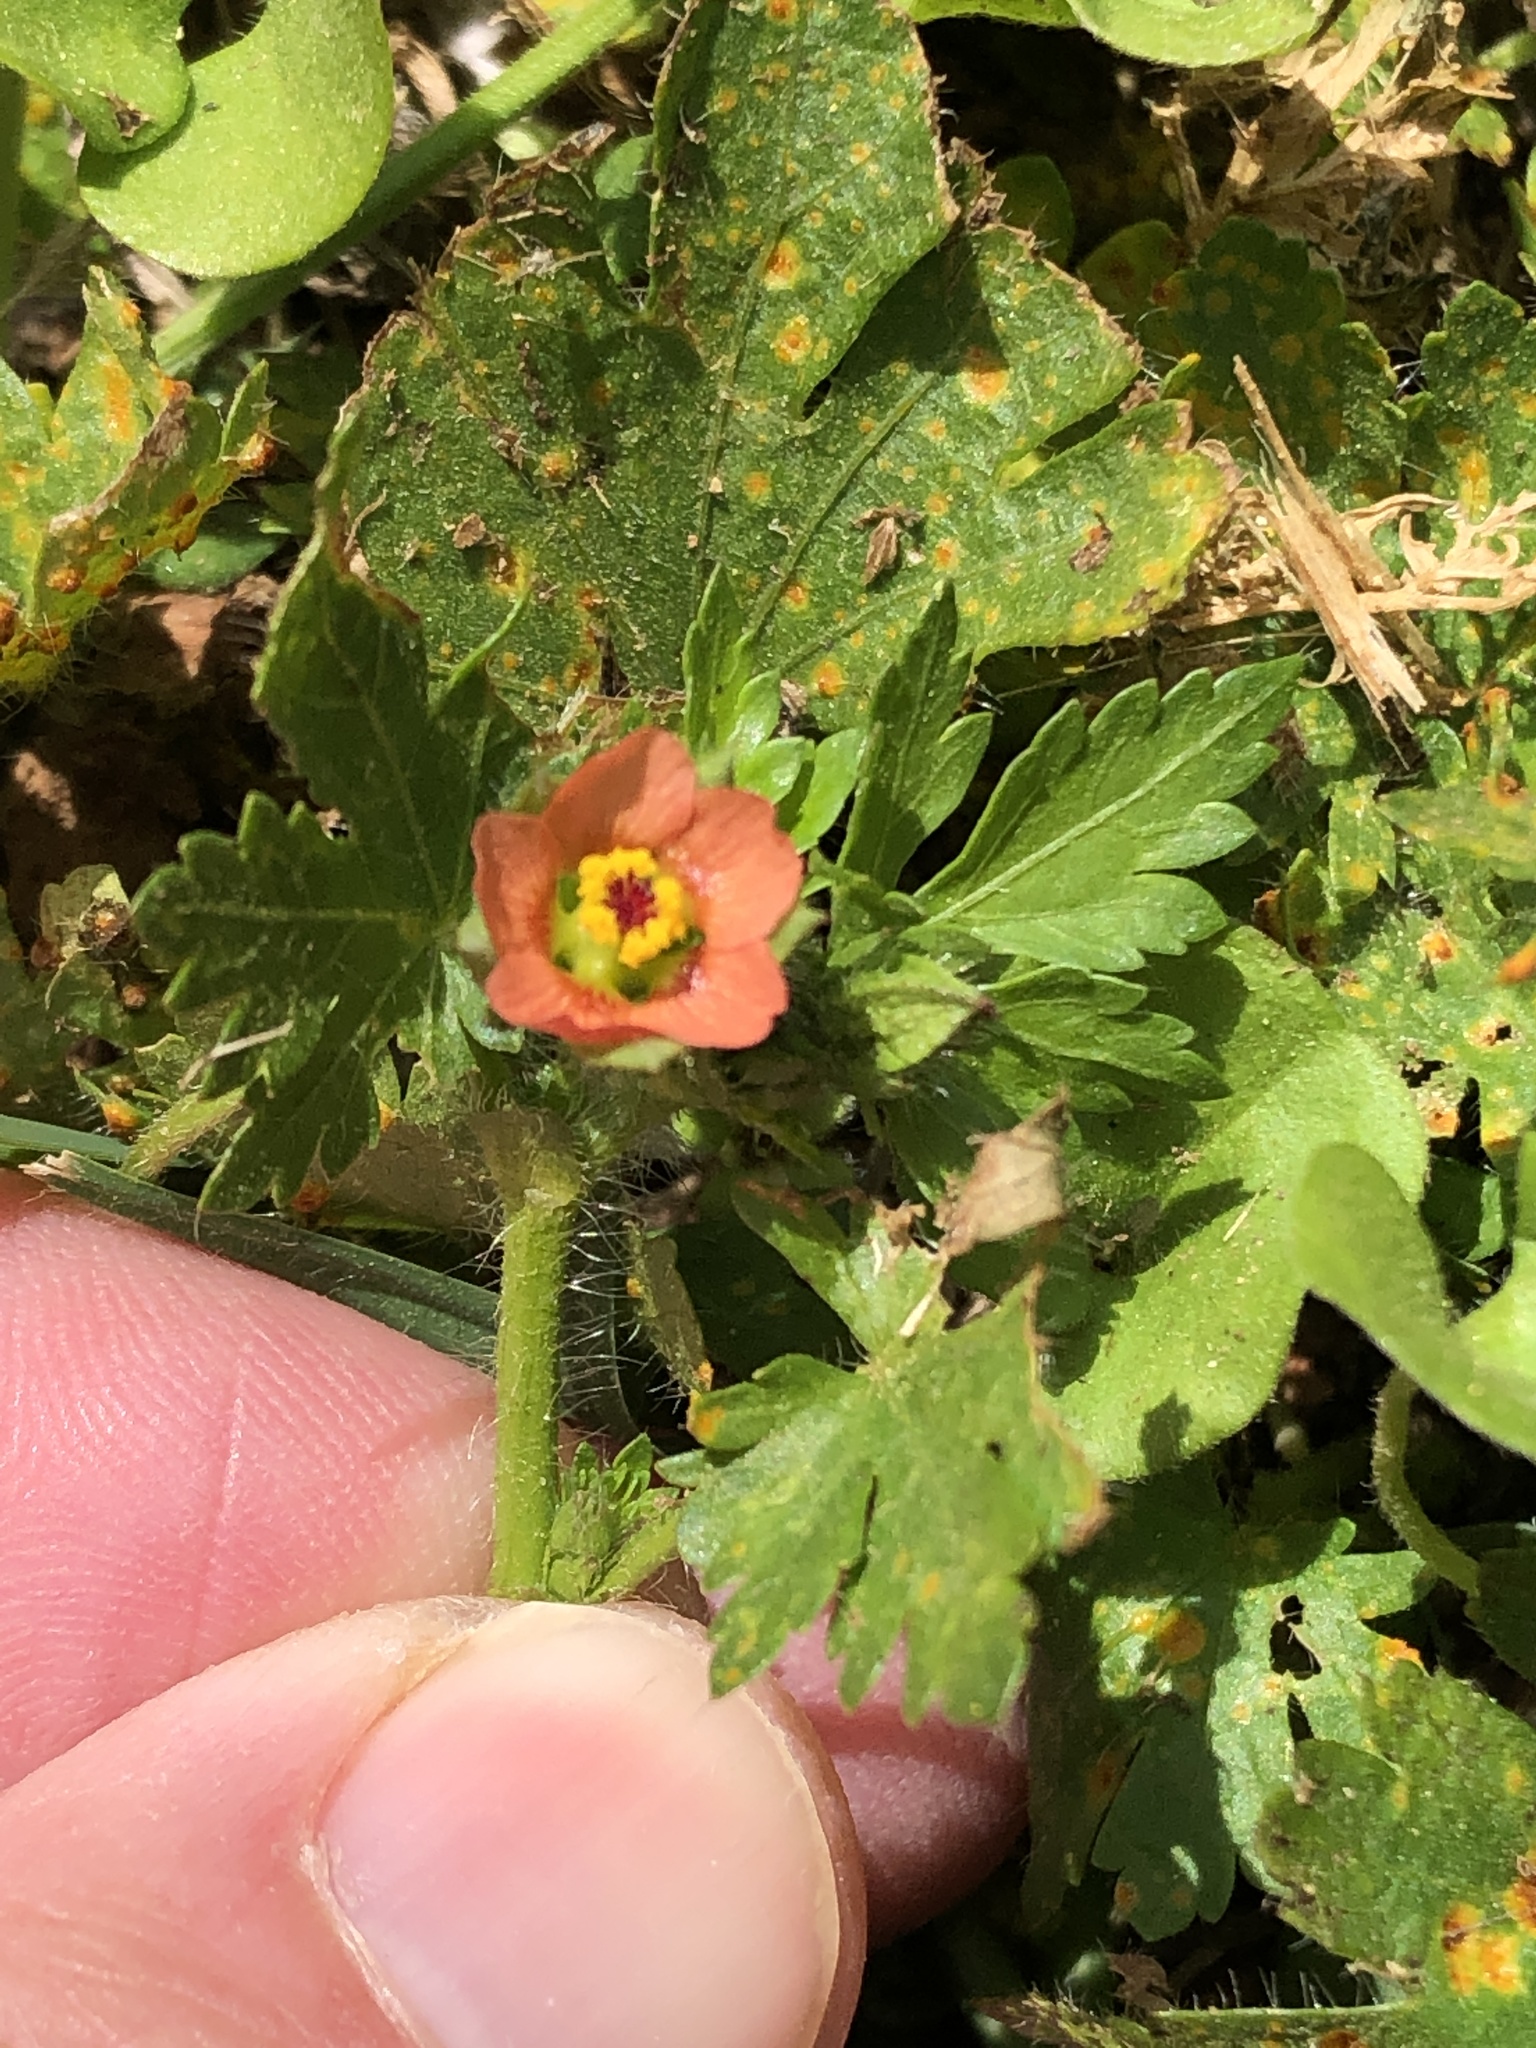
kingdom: Plantae
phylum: Tracheophyta
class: Magnoliopsida
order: Malvales
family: Malvaceae
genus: Modiola
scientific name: Modiola caroliniana
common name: Carolina bristlemallow
